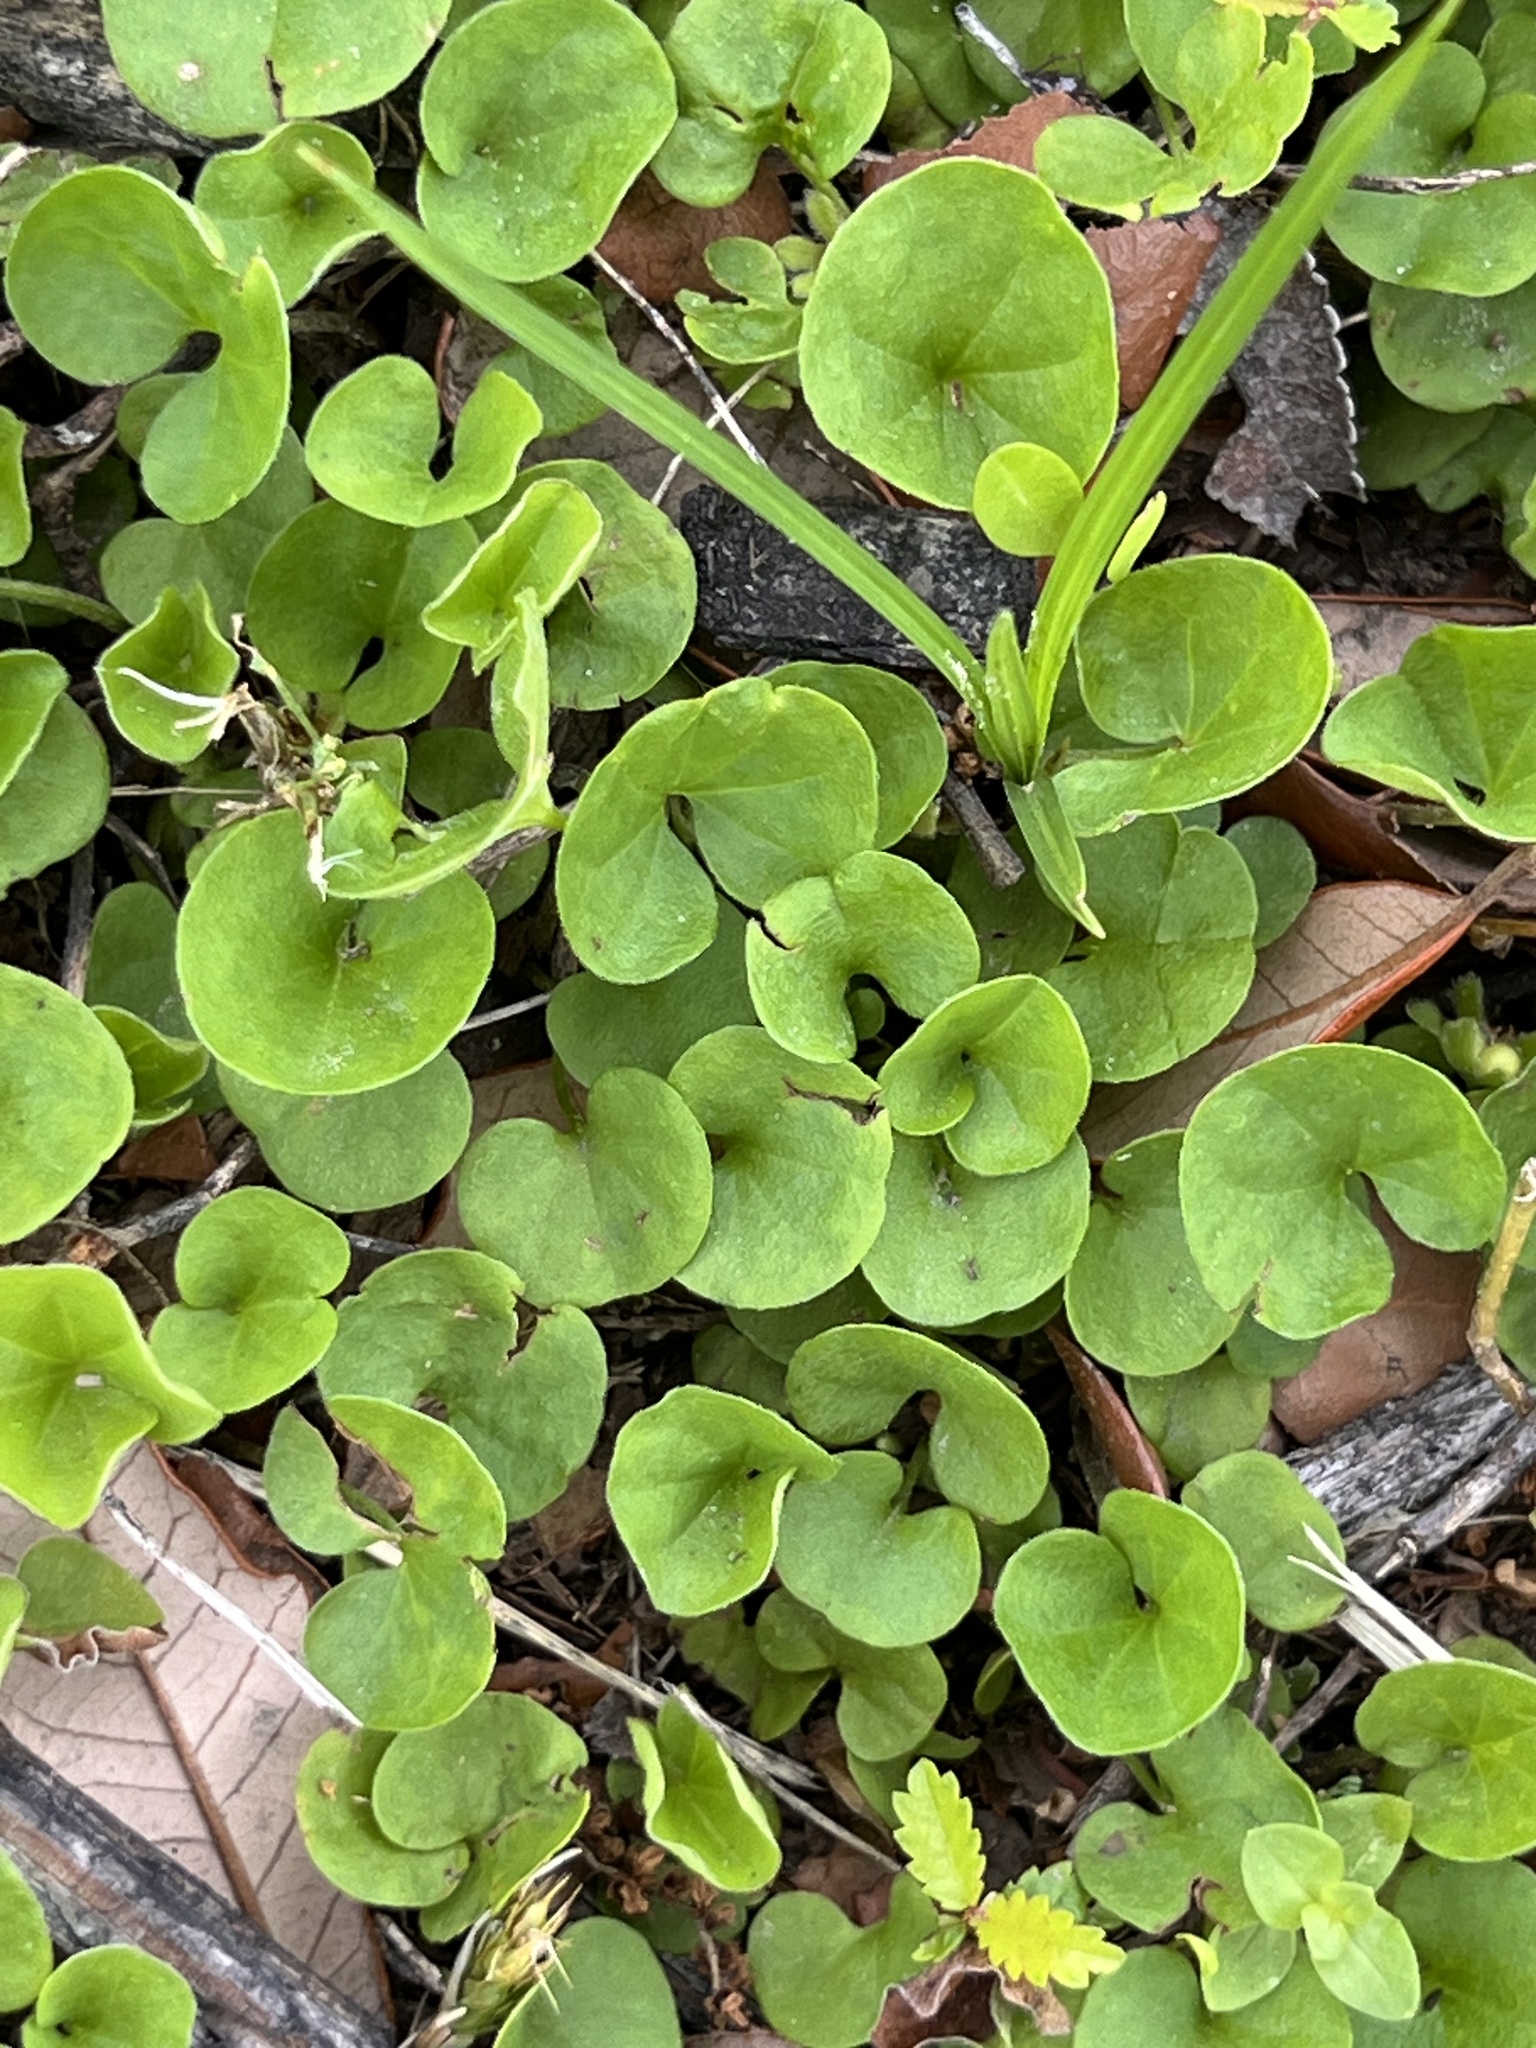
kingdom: Plantae
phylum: Tracheophyta
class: Magnoliopsida
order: Solanales
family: Convolvulaceae
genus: Dichondra
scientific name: Dichondra carolinensis
